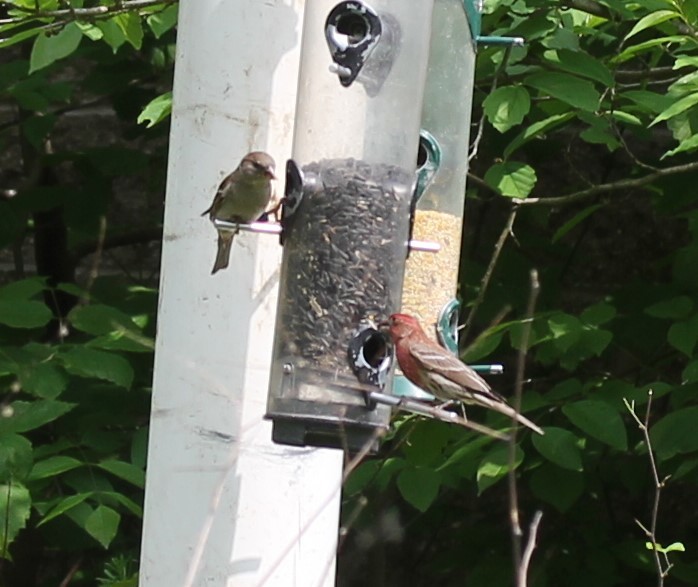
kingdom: Animalia
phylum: Chordata
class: Aves
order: Passeriformes
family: Fringillidae
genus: Haemorhous
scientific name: Haemorhous mexicanus
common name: House finch
